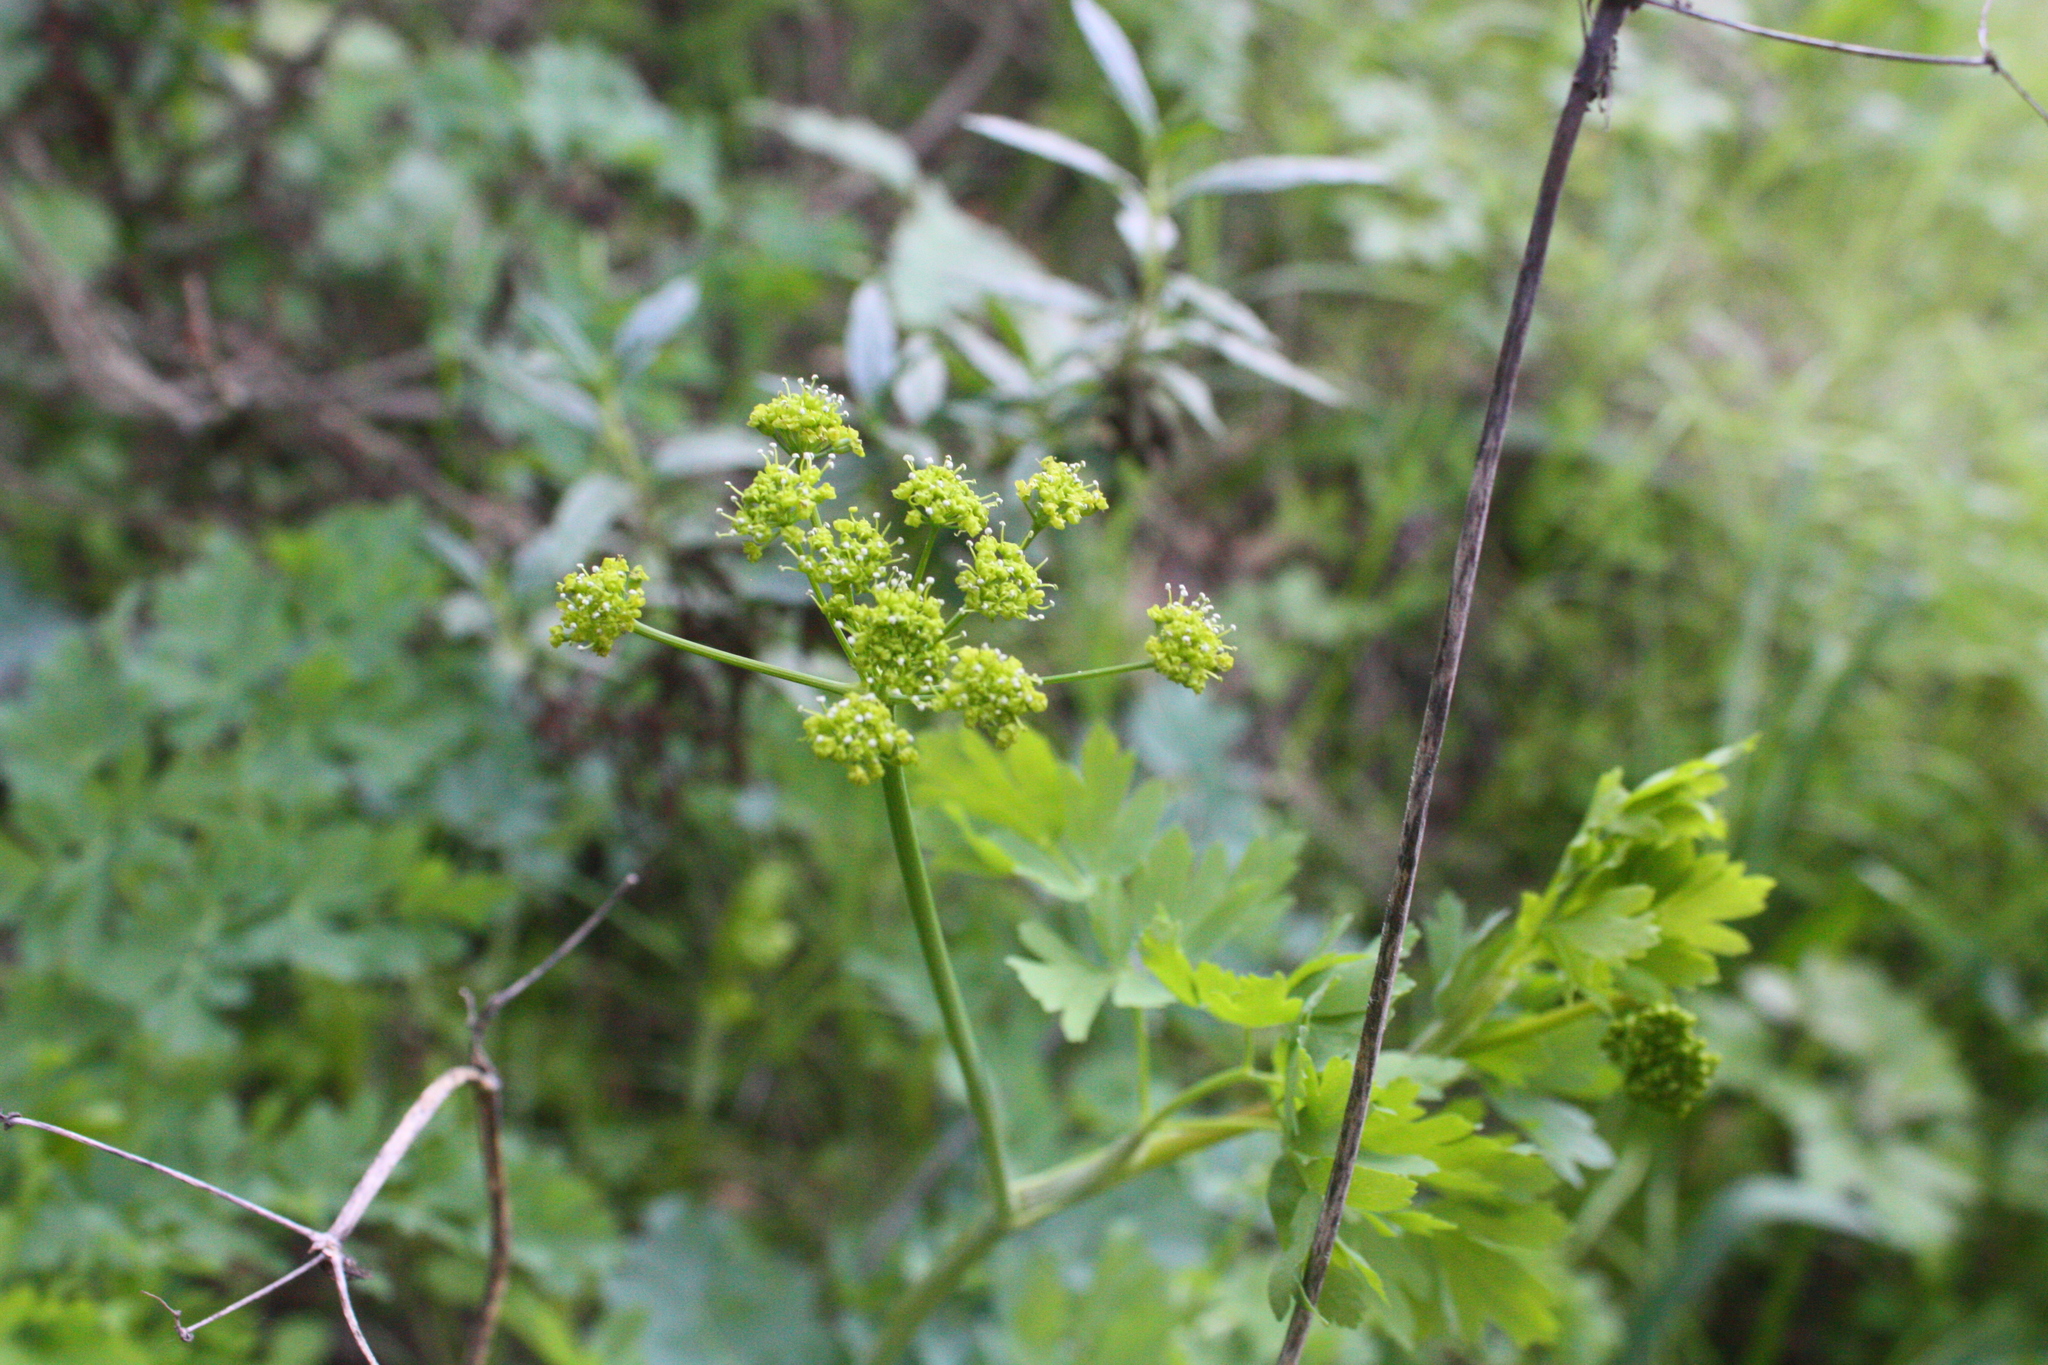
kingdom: Plantae
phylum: Tracheophyta
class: Magnoliopsida
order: Apiales
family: Apiaceae
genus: Lomatium
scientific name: Lomatium californicum
